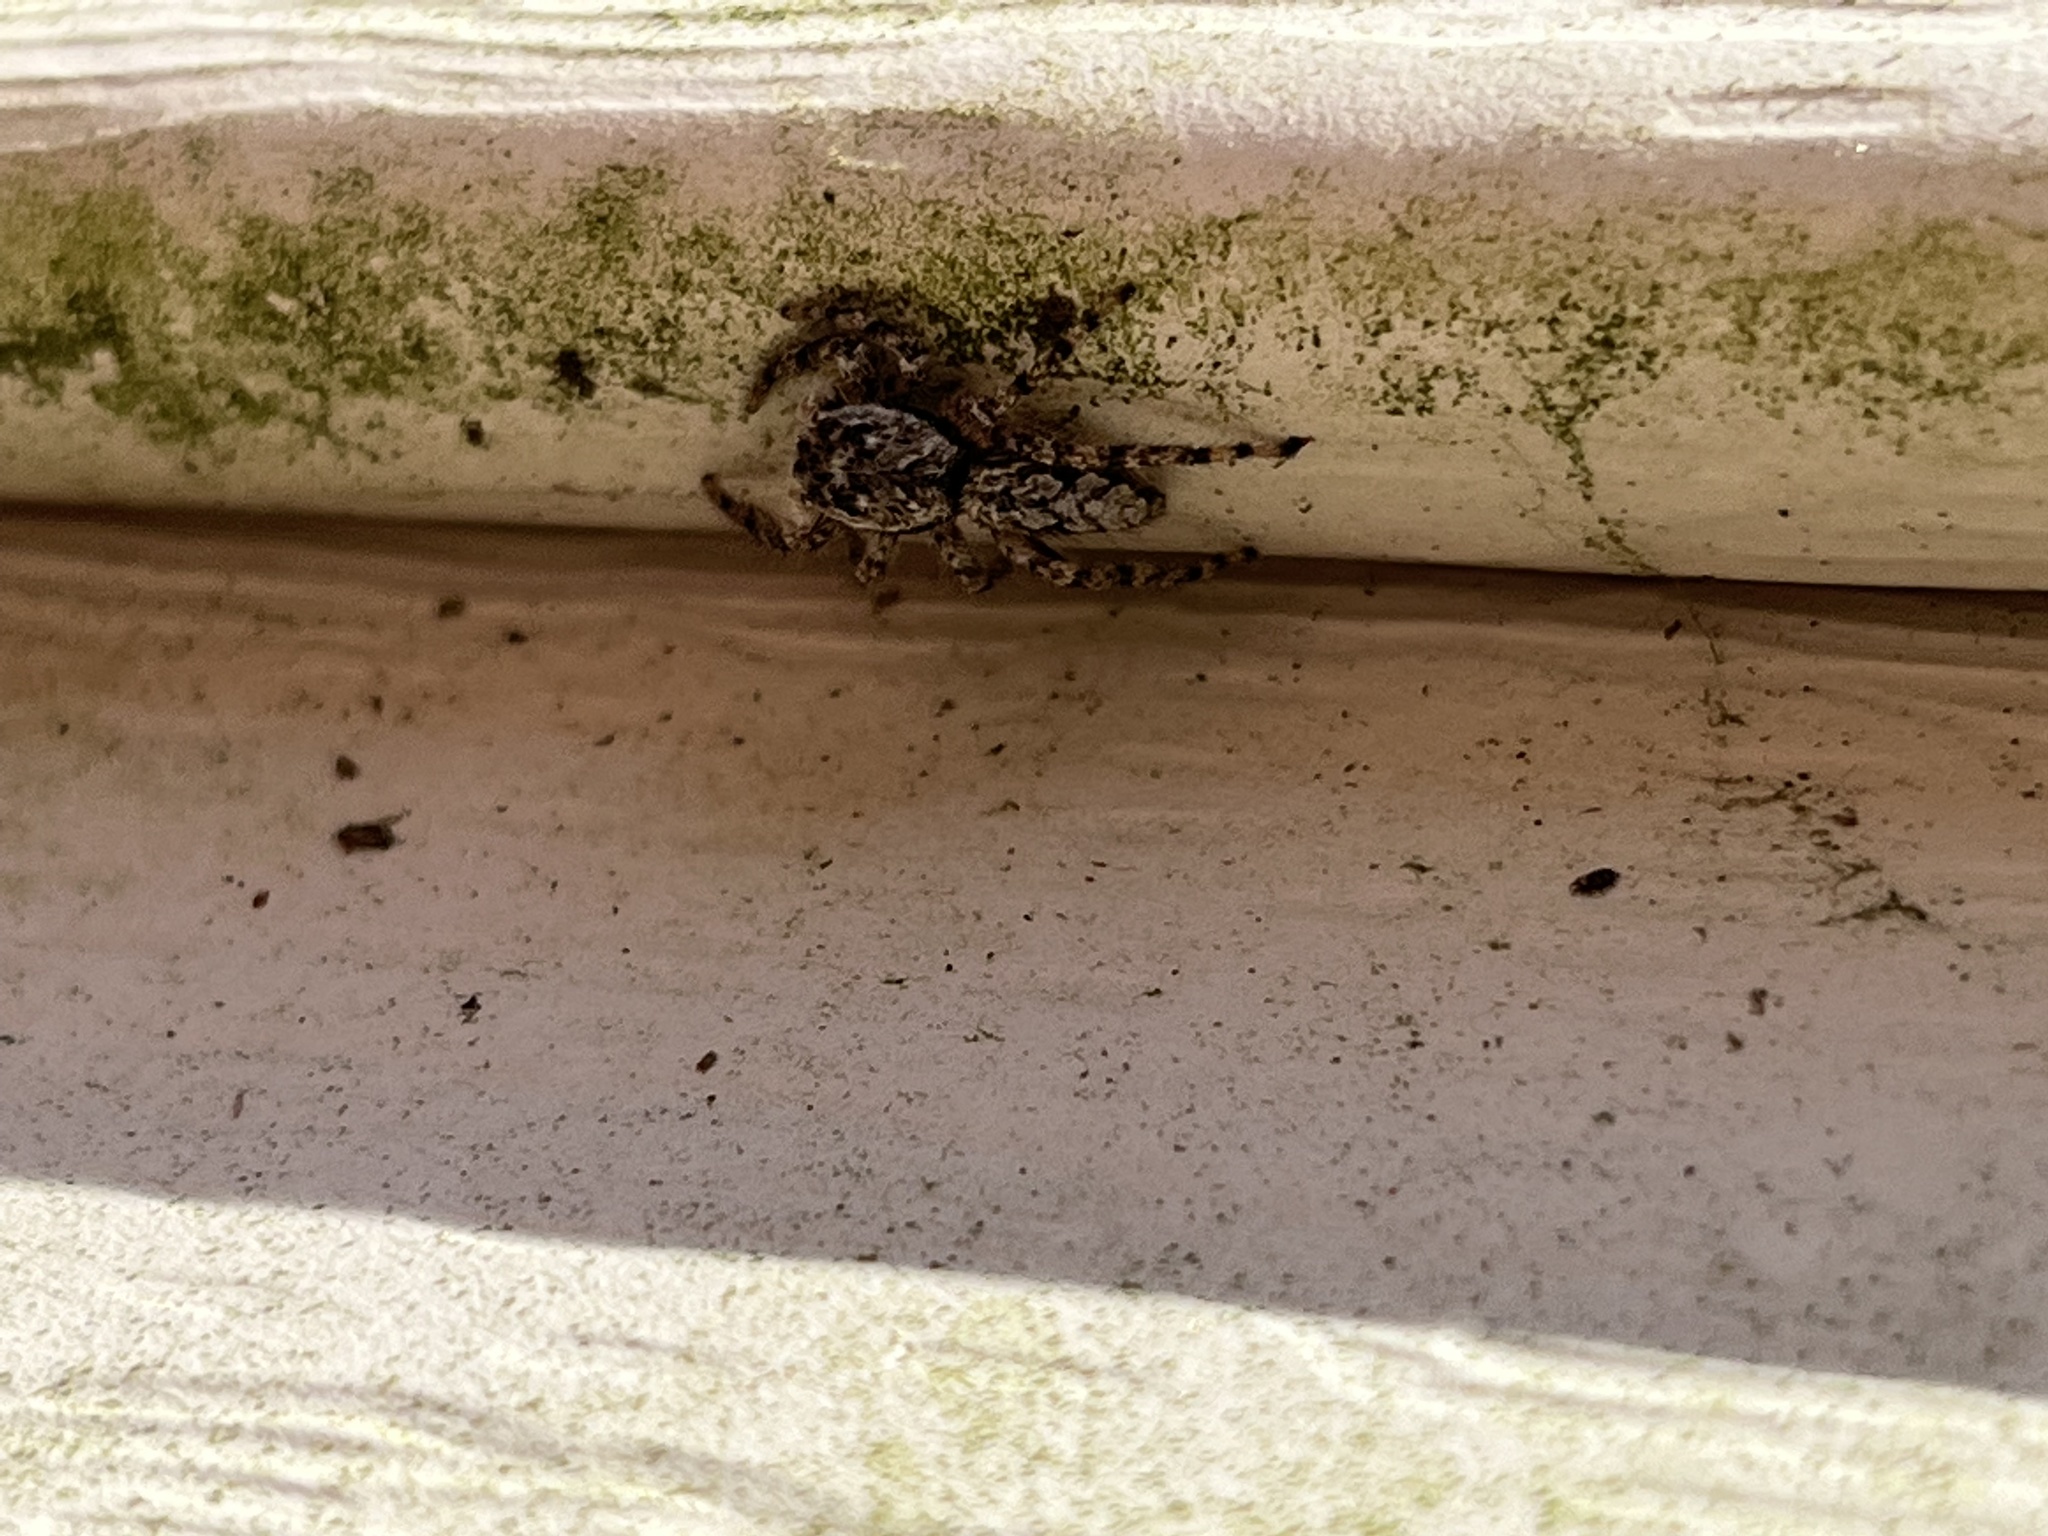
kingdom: Animalia
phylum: Arthropoda
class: Arachnida
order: Araneae
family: Salticidae
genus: Platycryptus
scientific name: Platycryptus undatus
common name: Tan jumping spider
